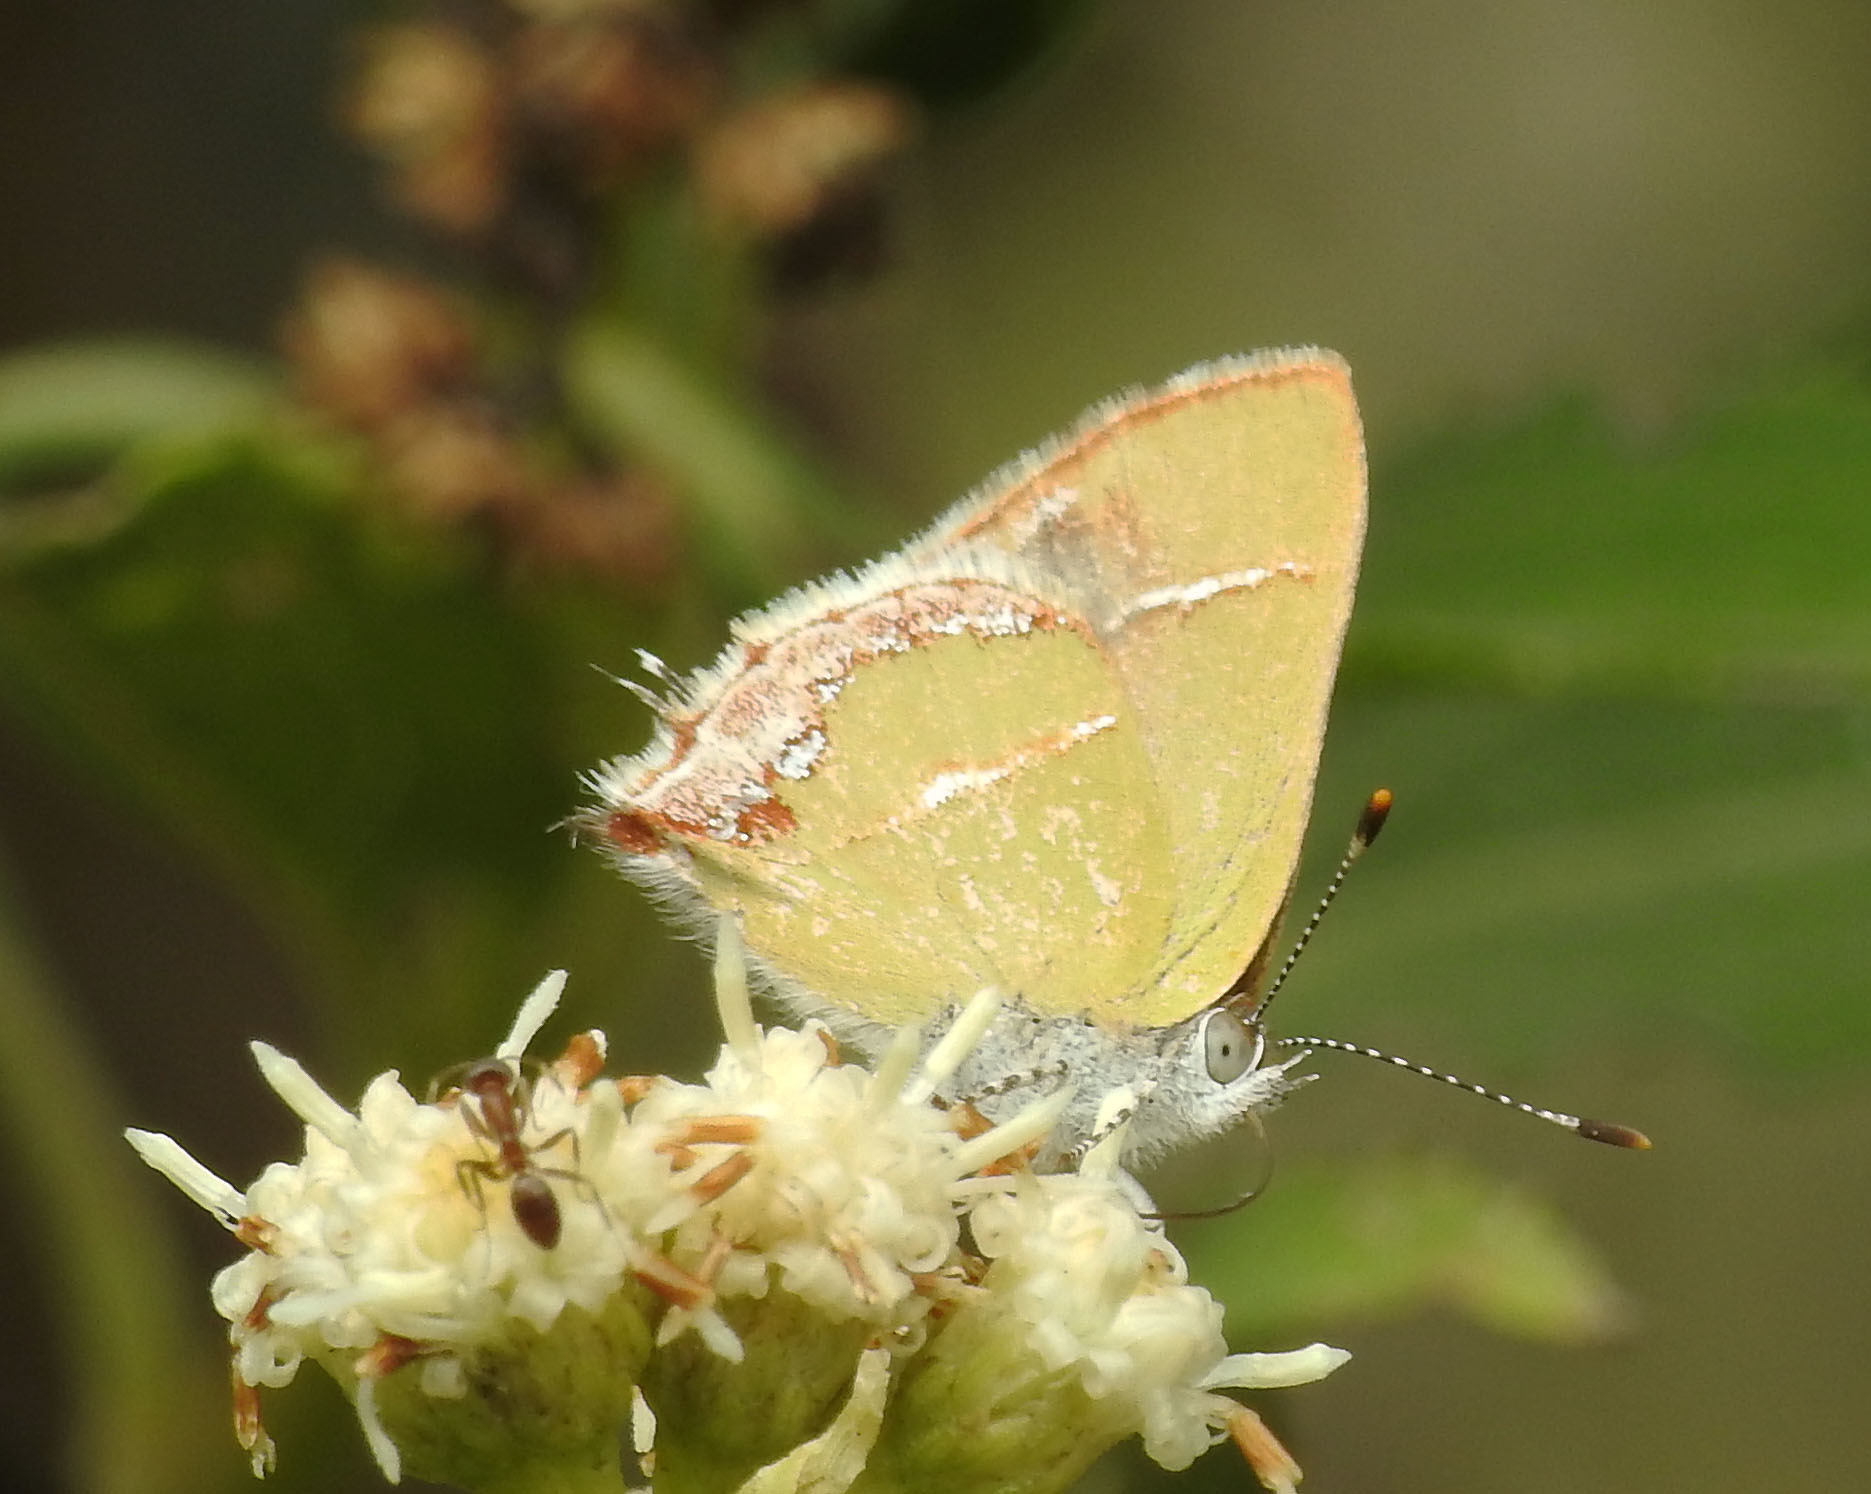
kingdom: Animalia
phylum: Arthropoda
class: Insecta
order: Lepidoptera
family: Lycaenidae
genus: Chlorostrymon
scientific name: Chlorostrymon simaethis
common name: Silver-banded hairstreak
